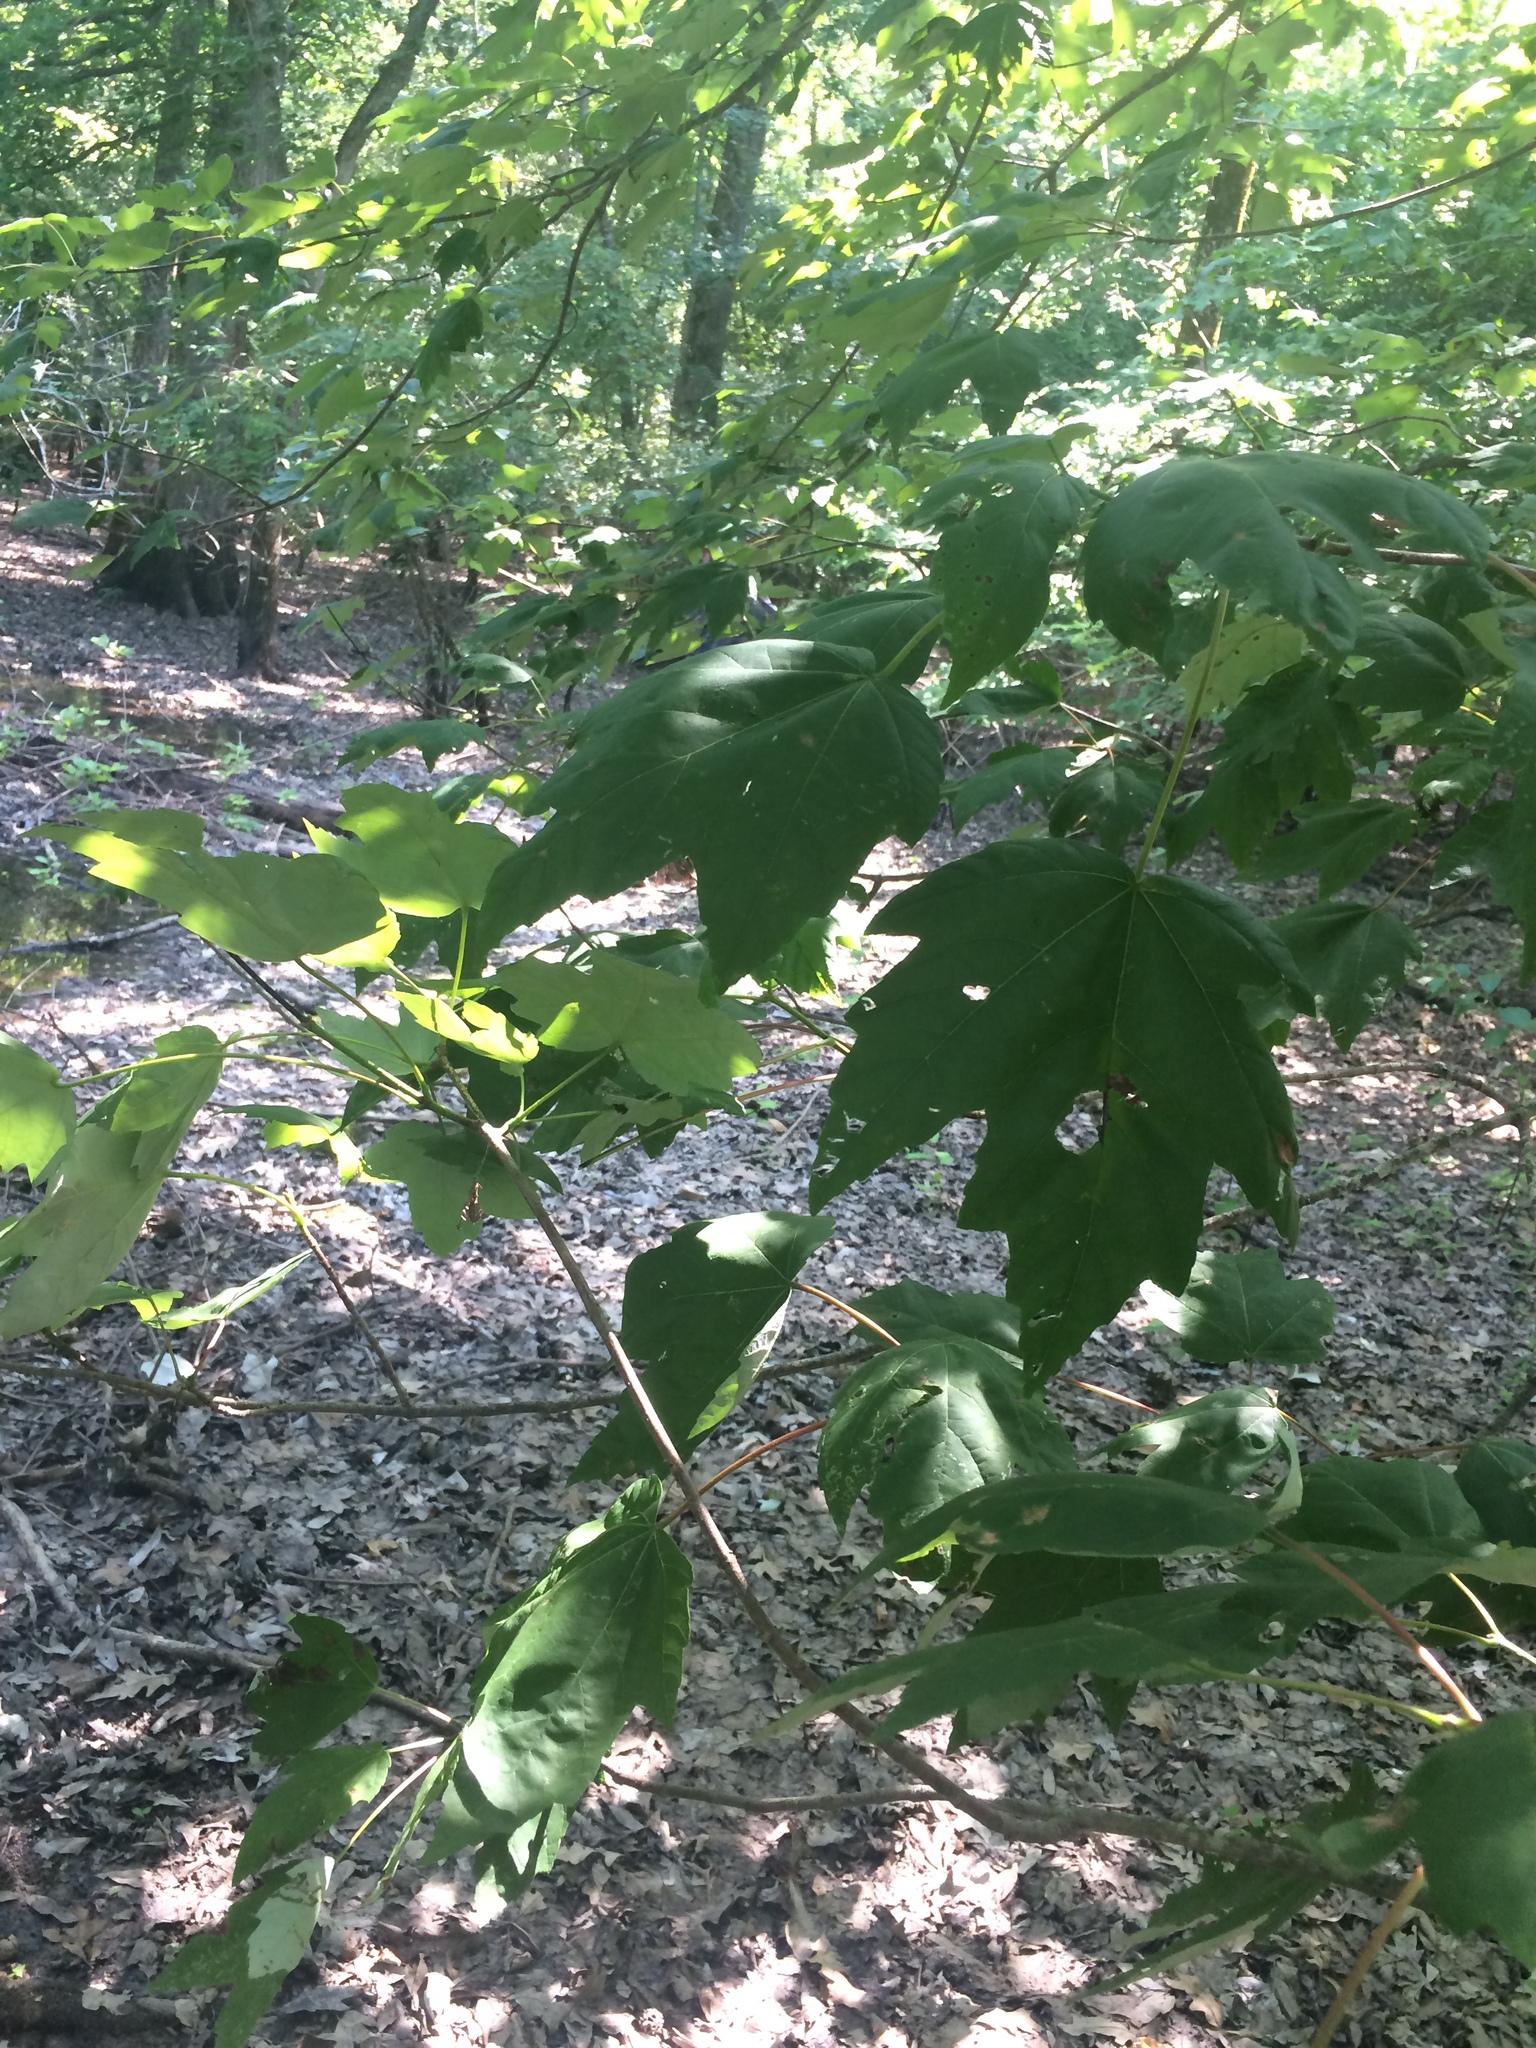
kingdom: Plantae
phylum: Tracheophyta
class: Magnoliopsida
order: Sapindales
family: Sapindaceae
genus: Acer
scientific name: Acer rubrum
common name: Red maple
